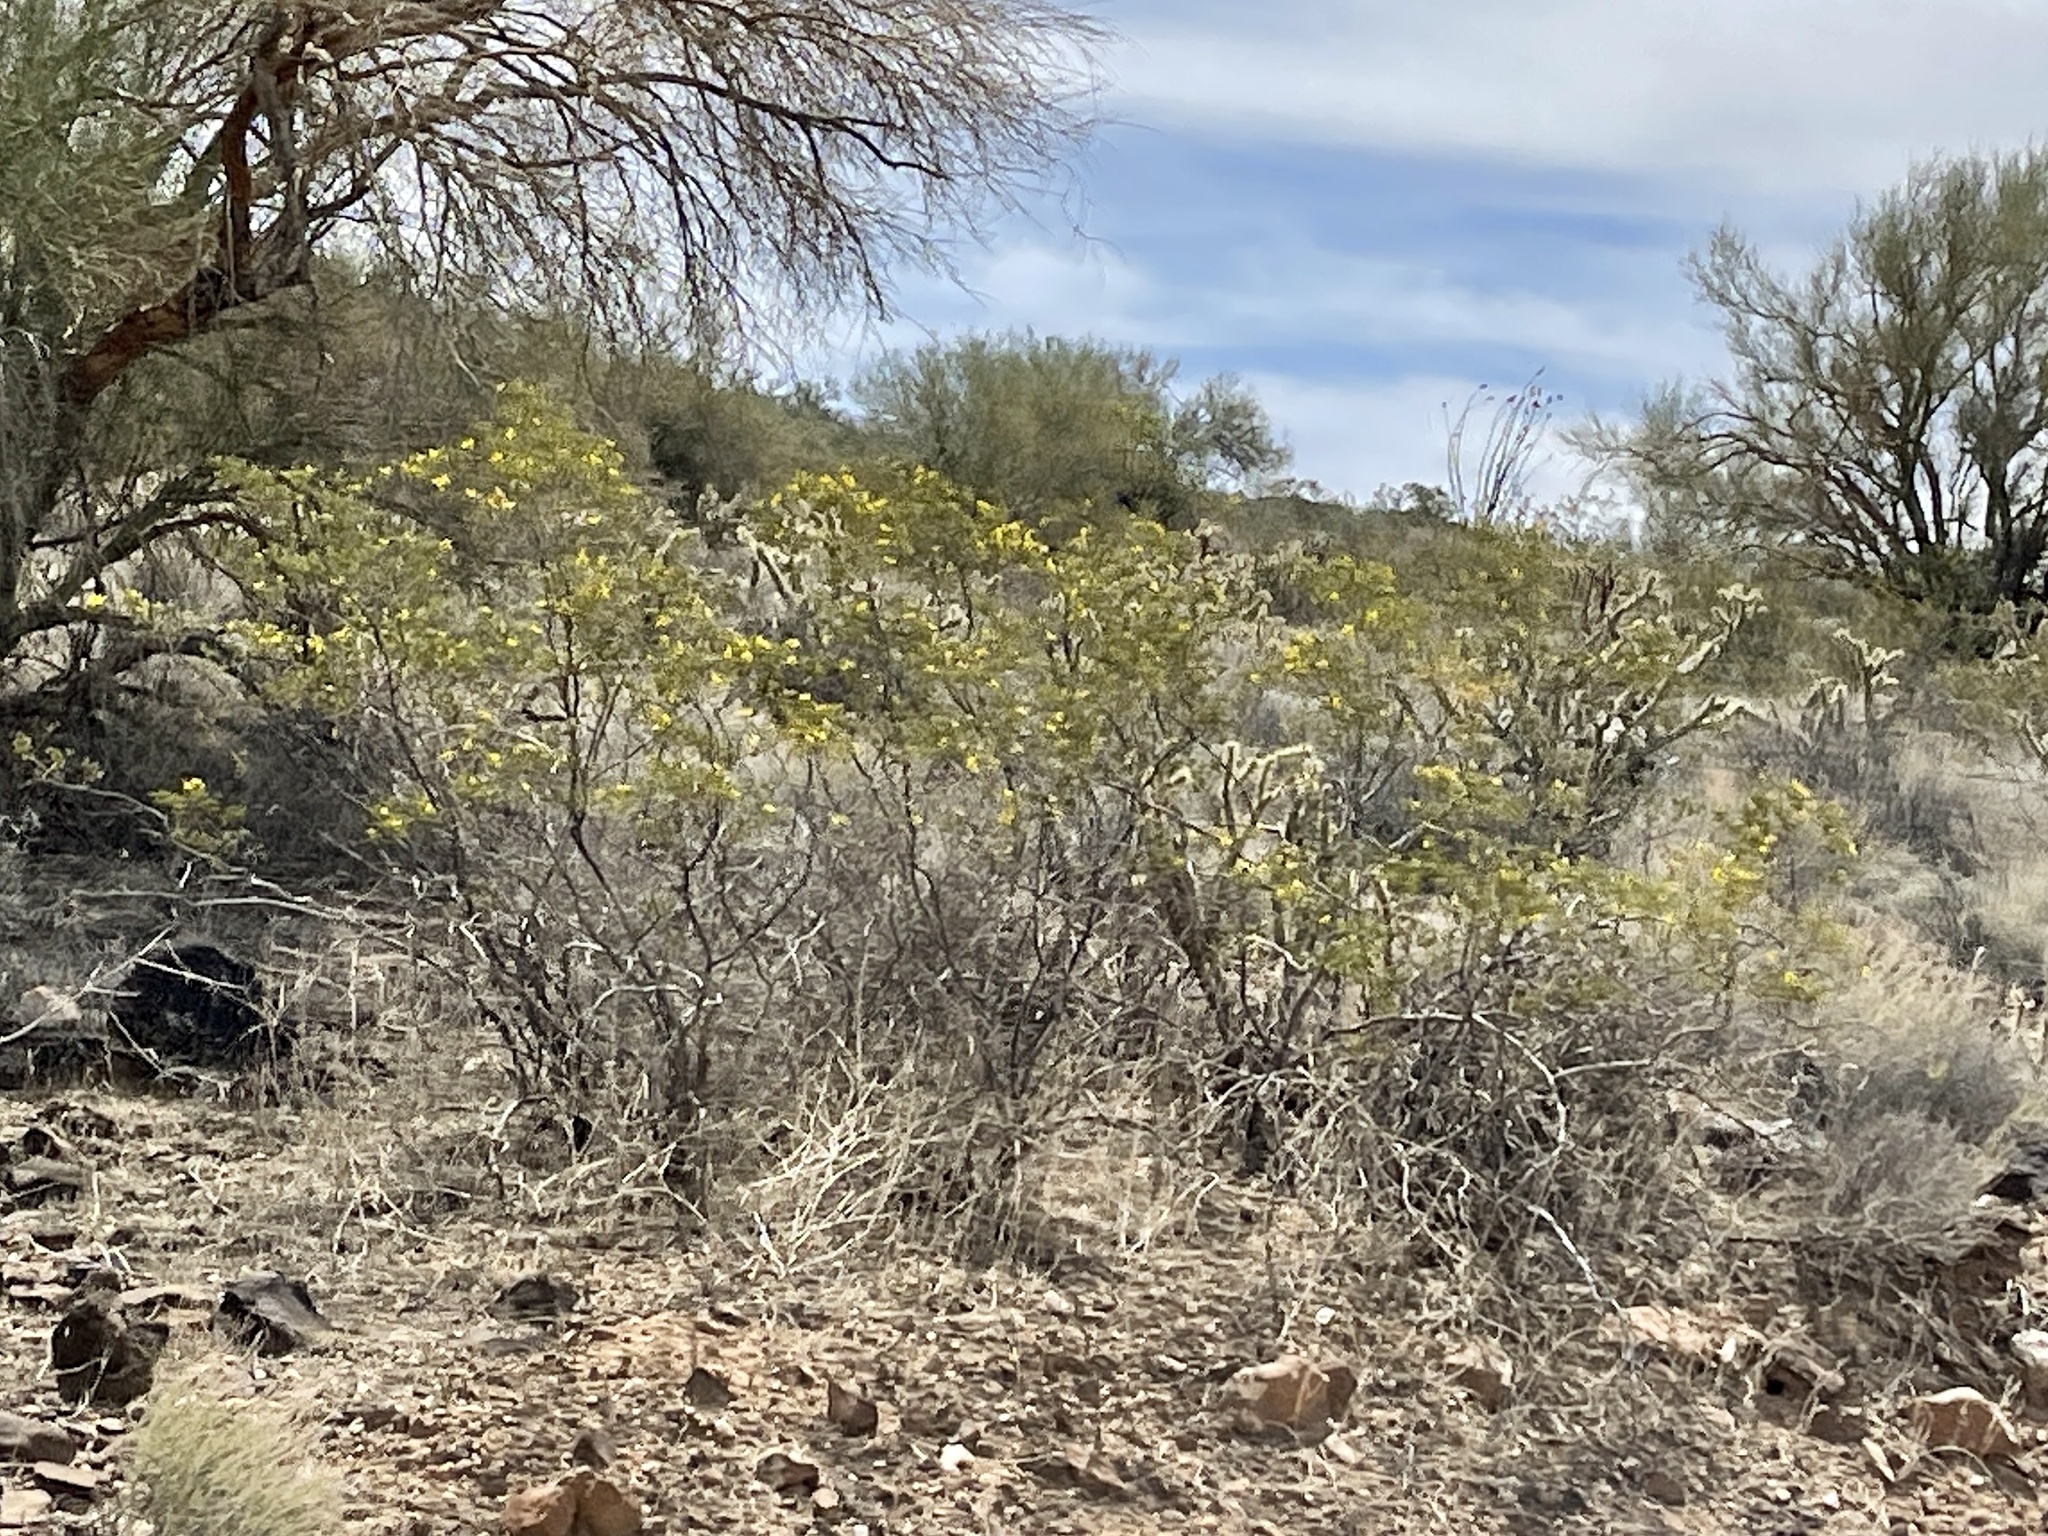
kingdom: Plantae
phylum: Tracheophyta
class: Magnoliopsida
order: Zygophyllales
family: Zygophyllaceae
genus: Larrea
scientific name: Larrea tridentata
